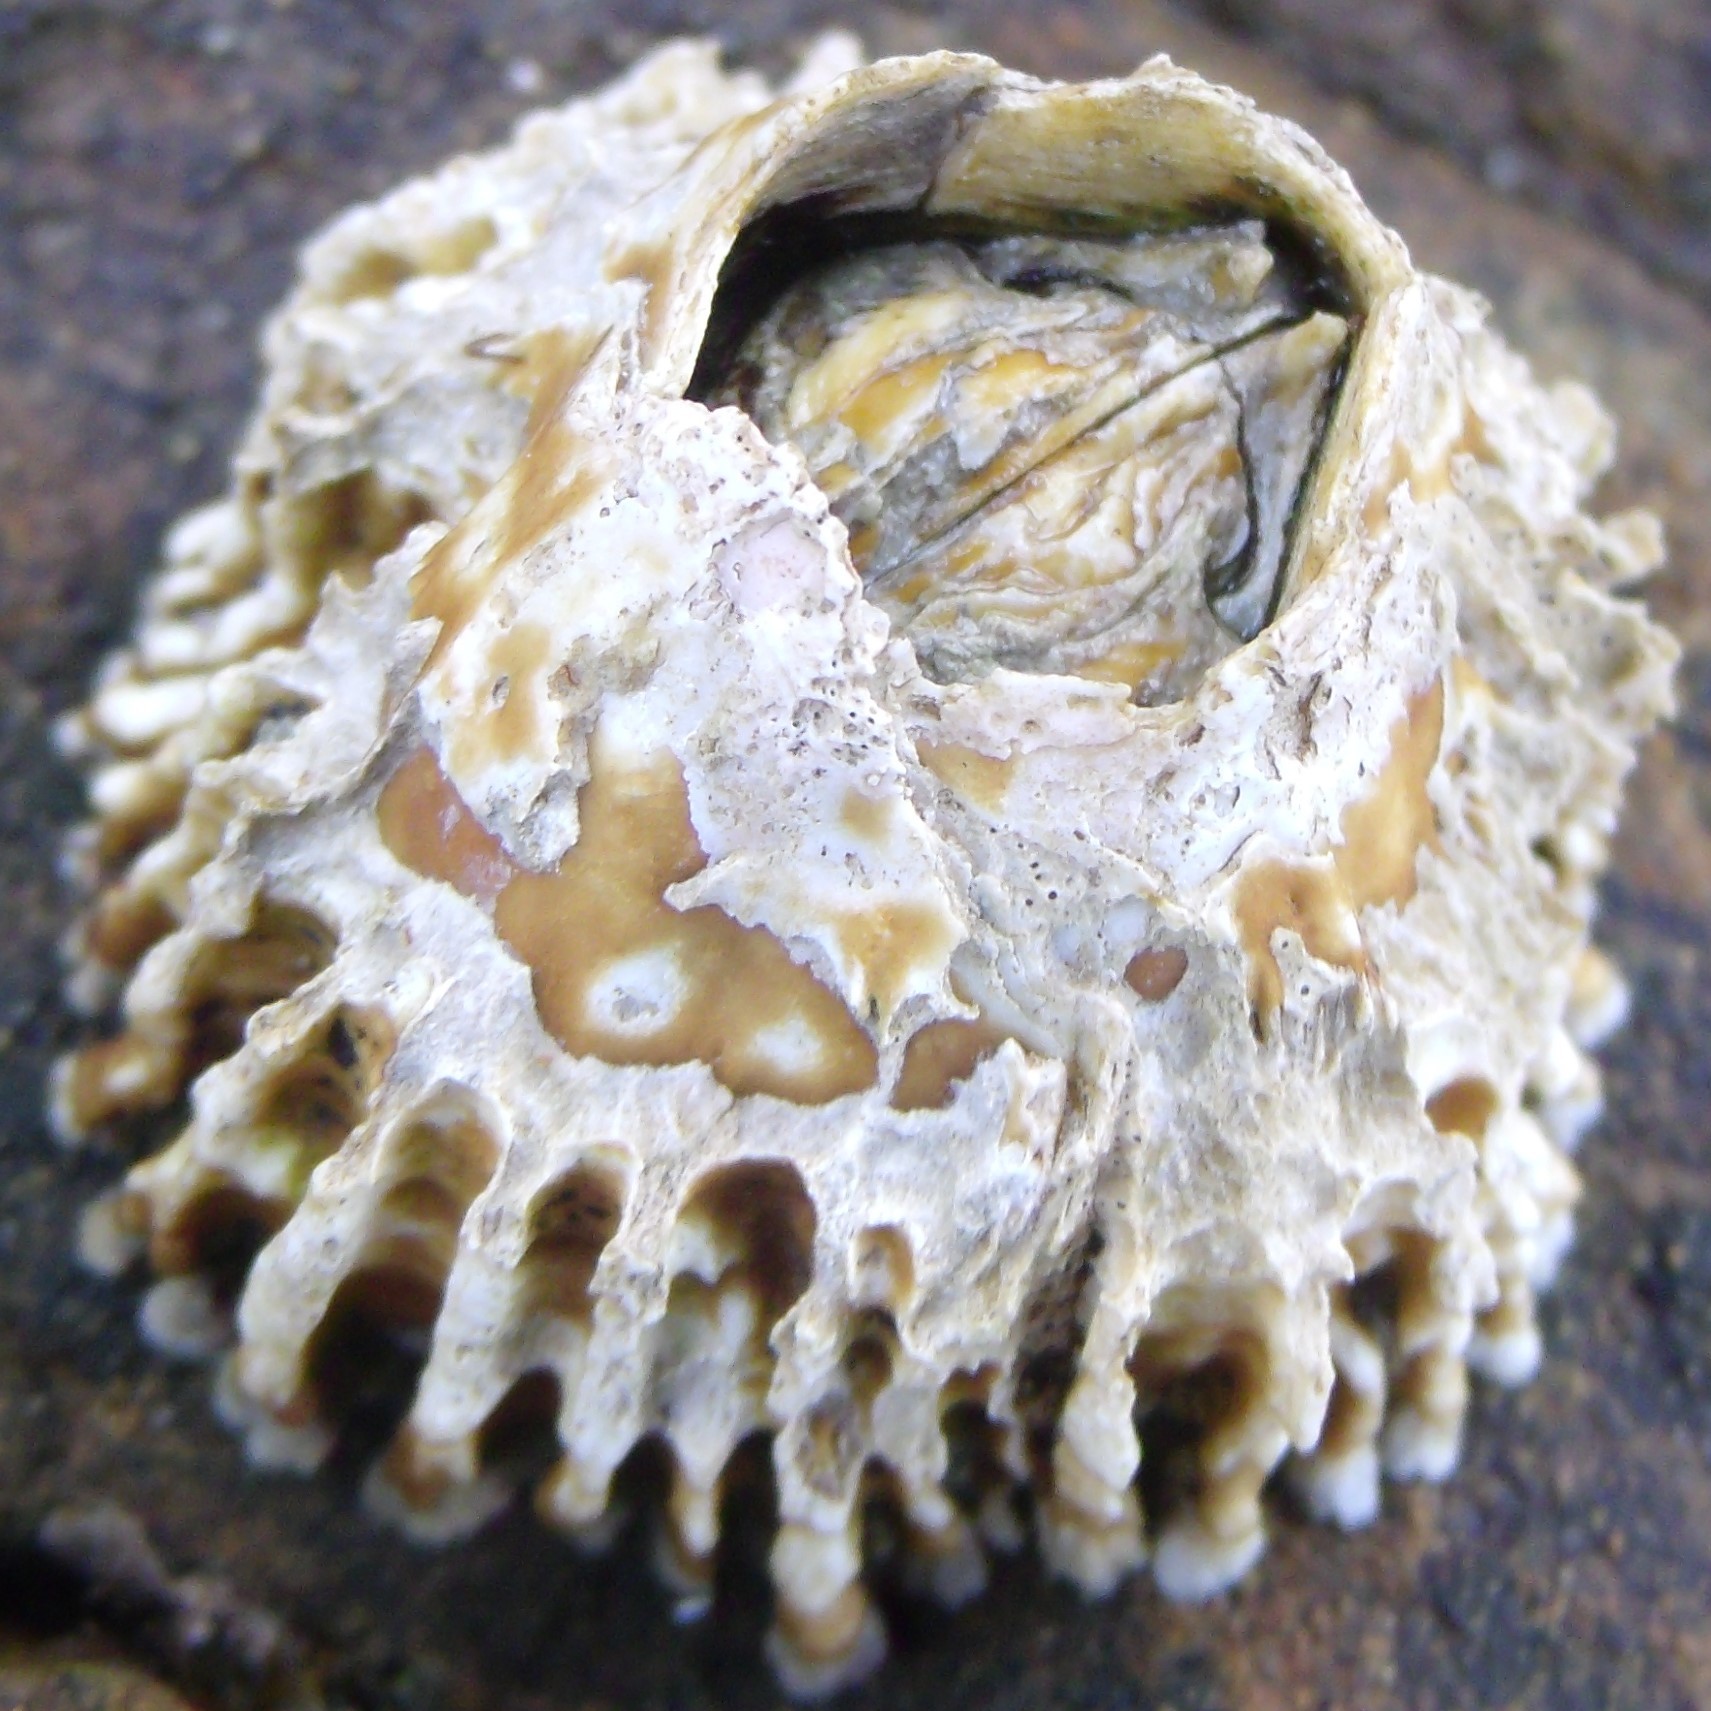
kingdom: Animalia
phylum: Arthropoda
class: Maxillopoda
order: Sessilia
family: Tetraclitidae
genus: Epopella
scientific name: Epopella plicata
